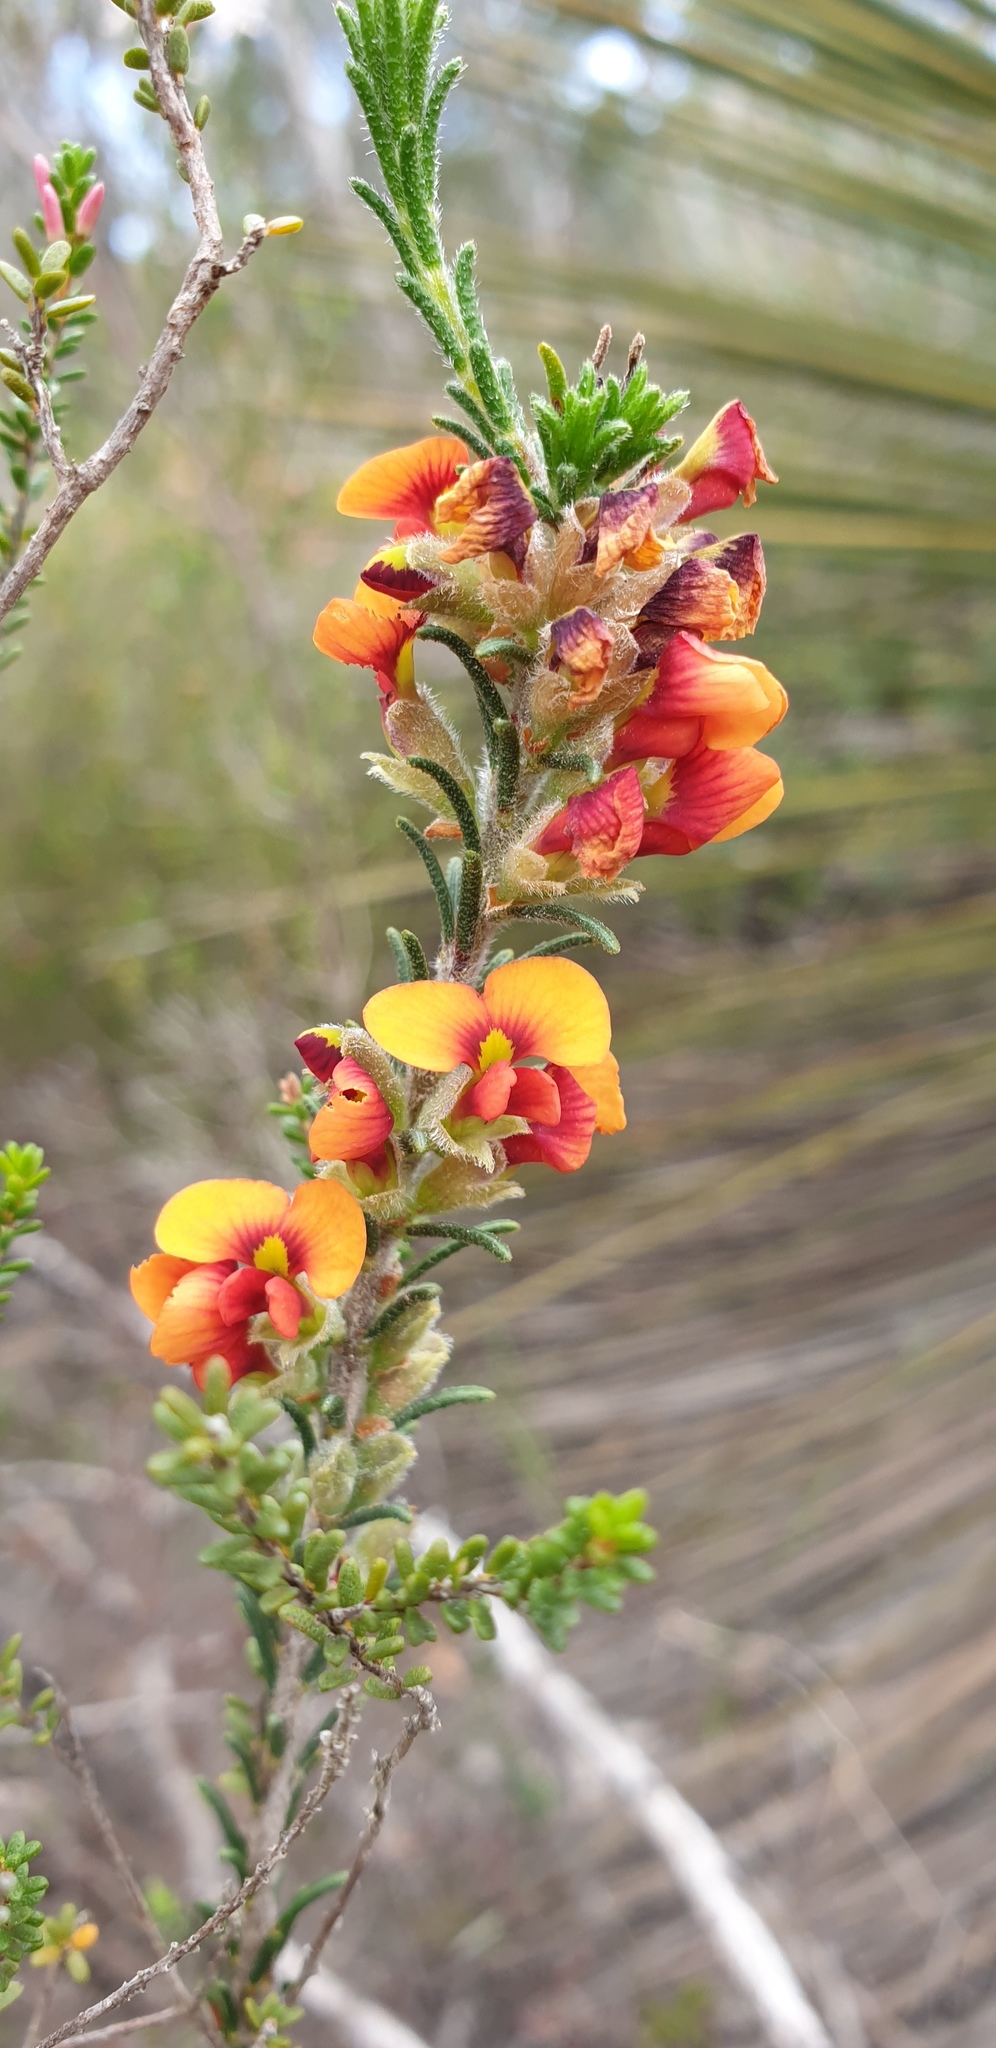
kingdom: Plantae
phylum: Tracheophyta
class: Magnoliopsida
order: Fabales
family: Fabaceae
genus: Dillwynia
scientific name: Dillwynia sericea
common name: Showy parrot-pea
